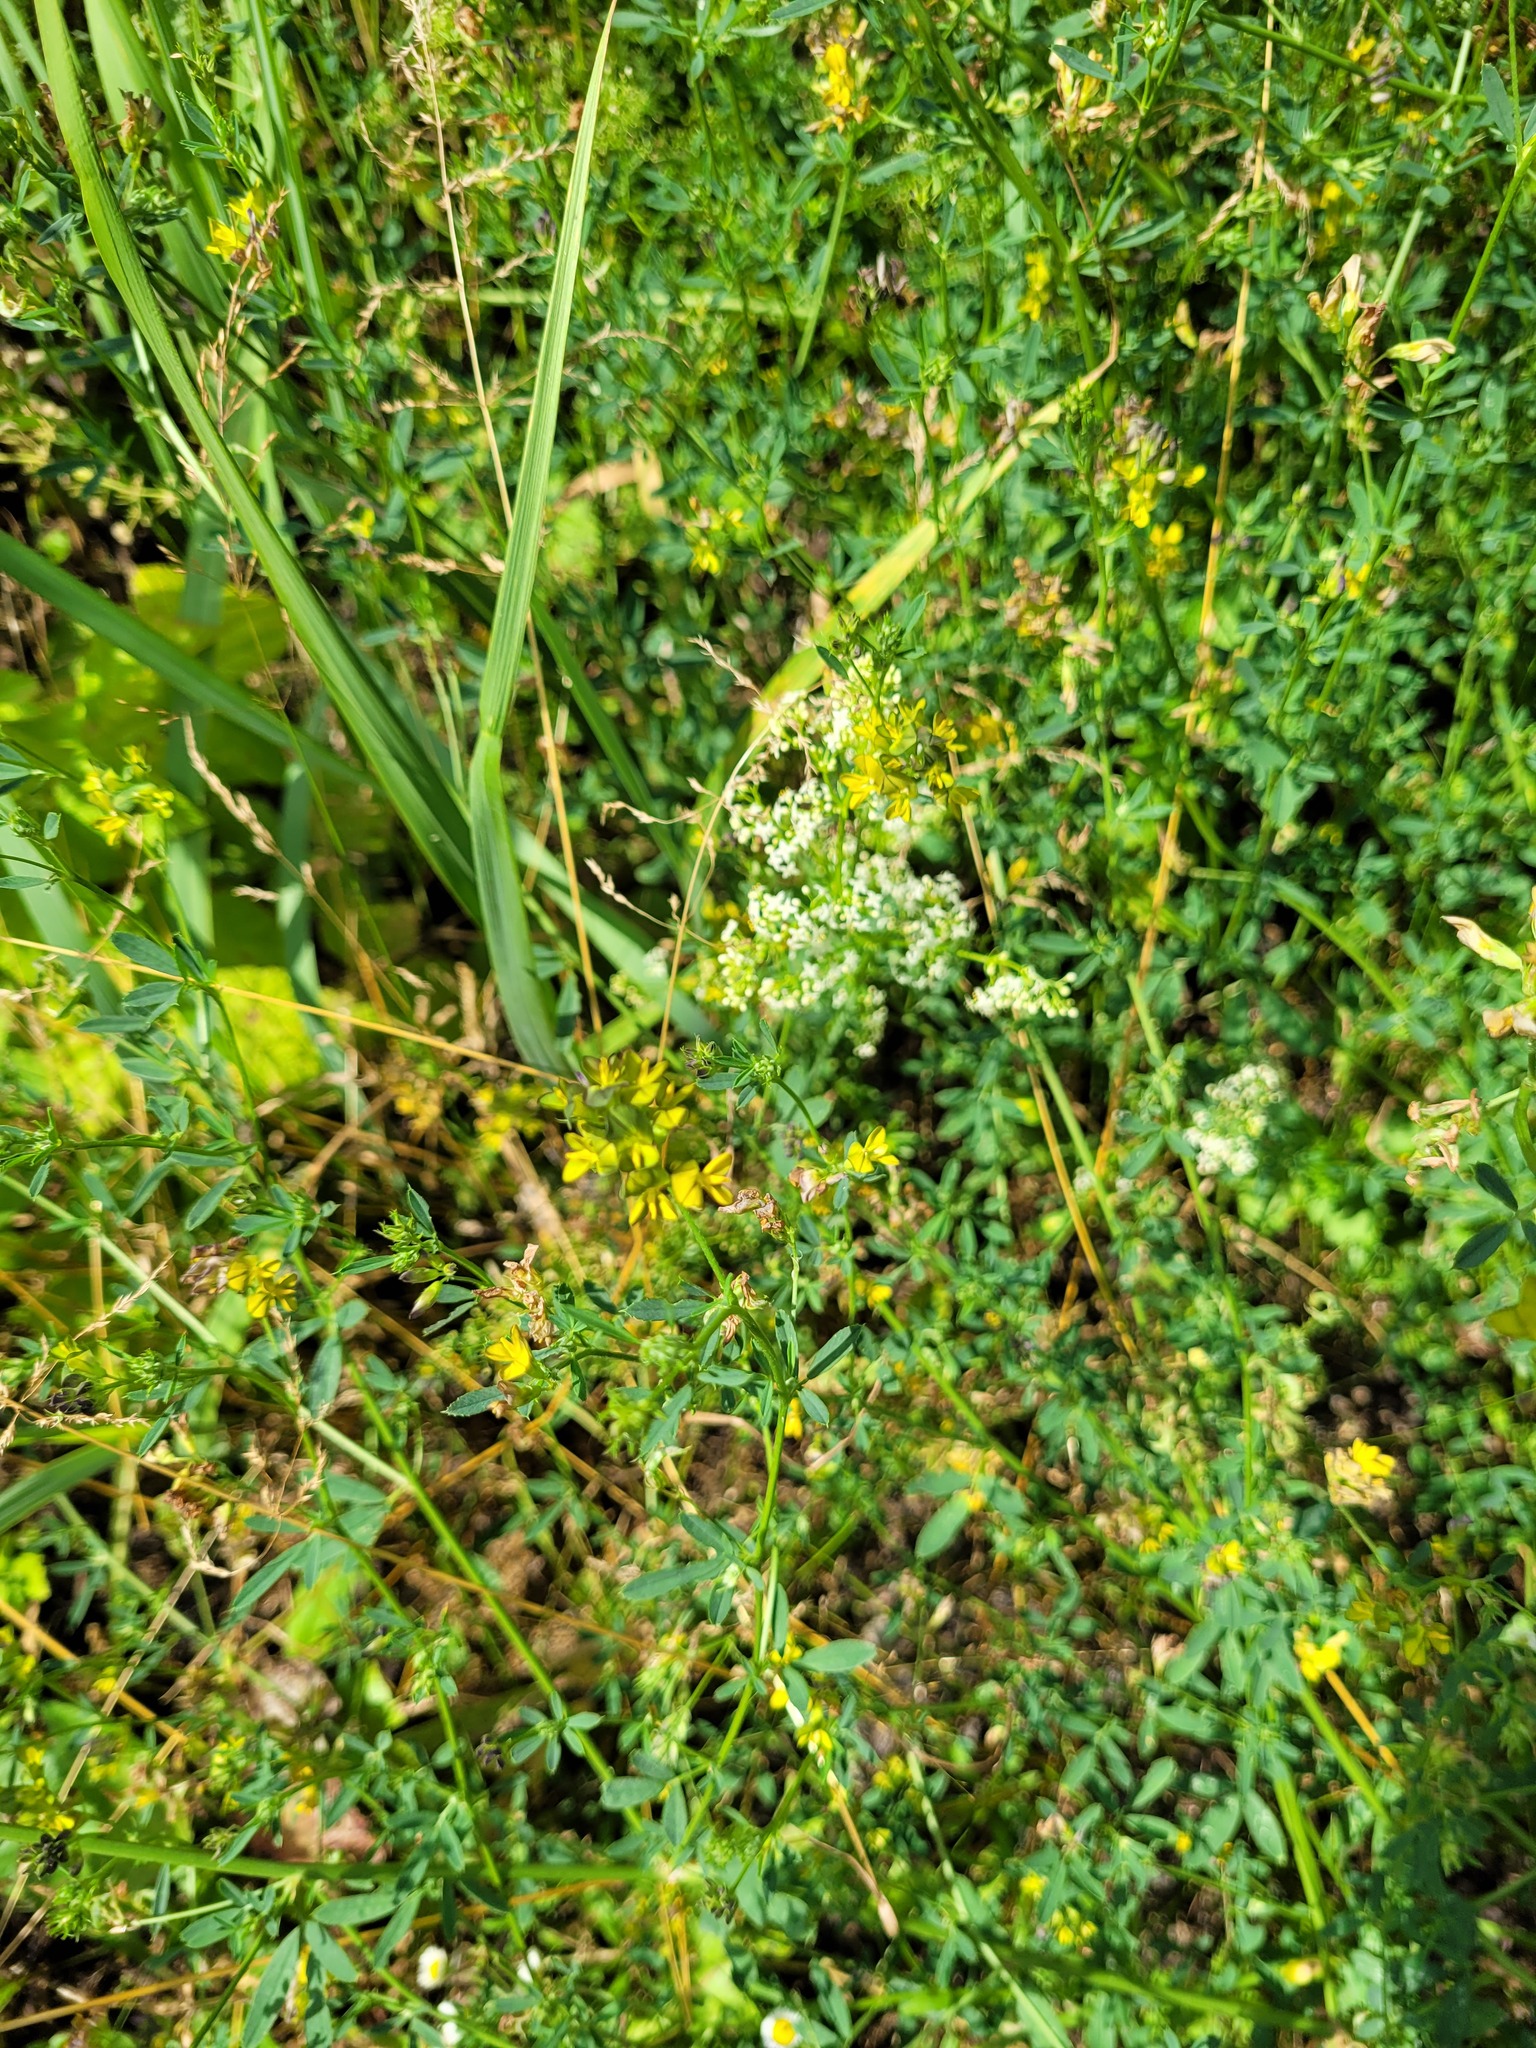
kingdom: Plantae
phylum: Tracheophyta
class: Magnoliopsida
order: Fabales
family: Fabaceae
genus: Medicago
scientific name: Medicago varia
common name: Sand lucerne
